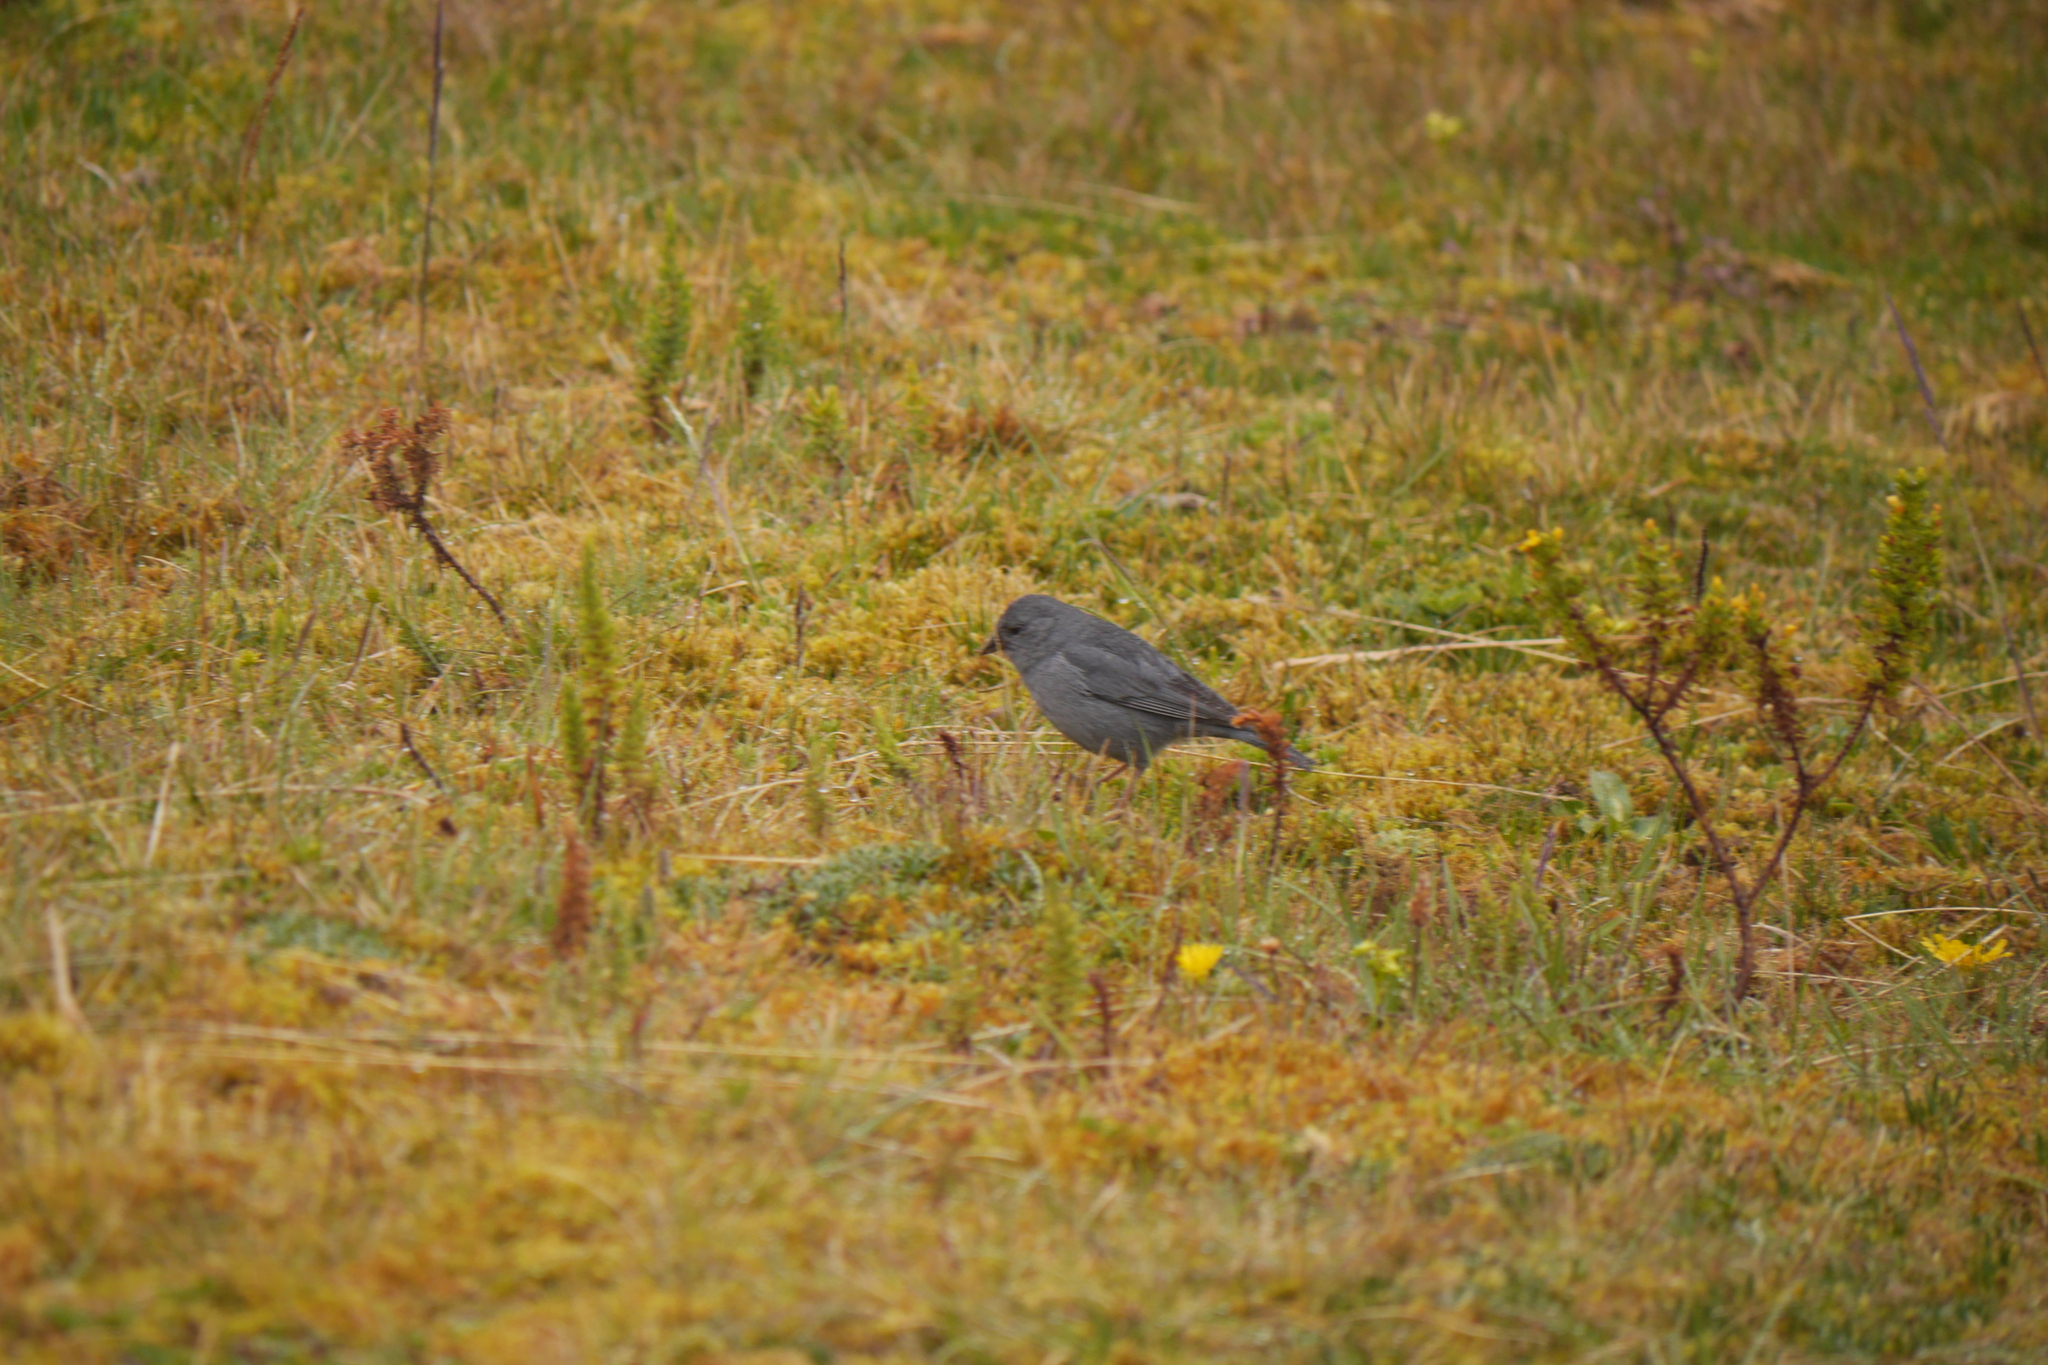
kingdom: Animalia
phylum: Chordata
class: Aves
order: Passeriformes
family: Thraupidae
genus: Geospizopsis
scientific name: Geospizopsis unicolor
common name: Plumbeous sierra-finch
